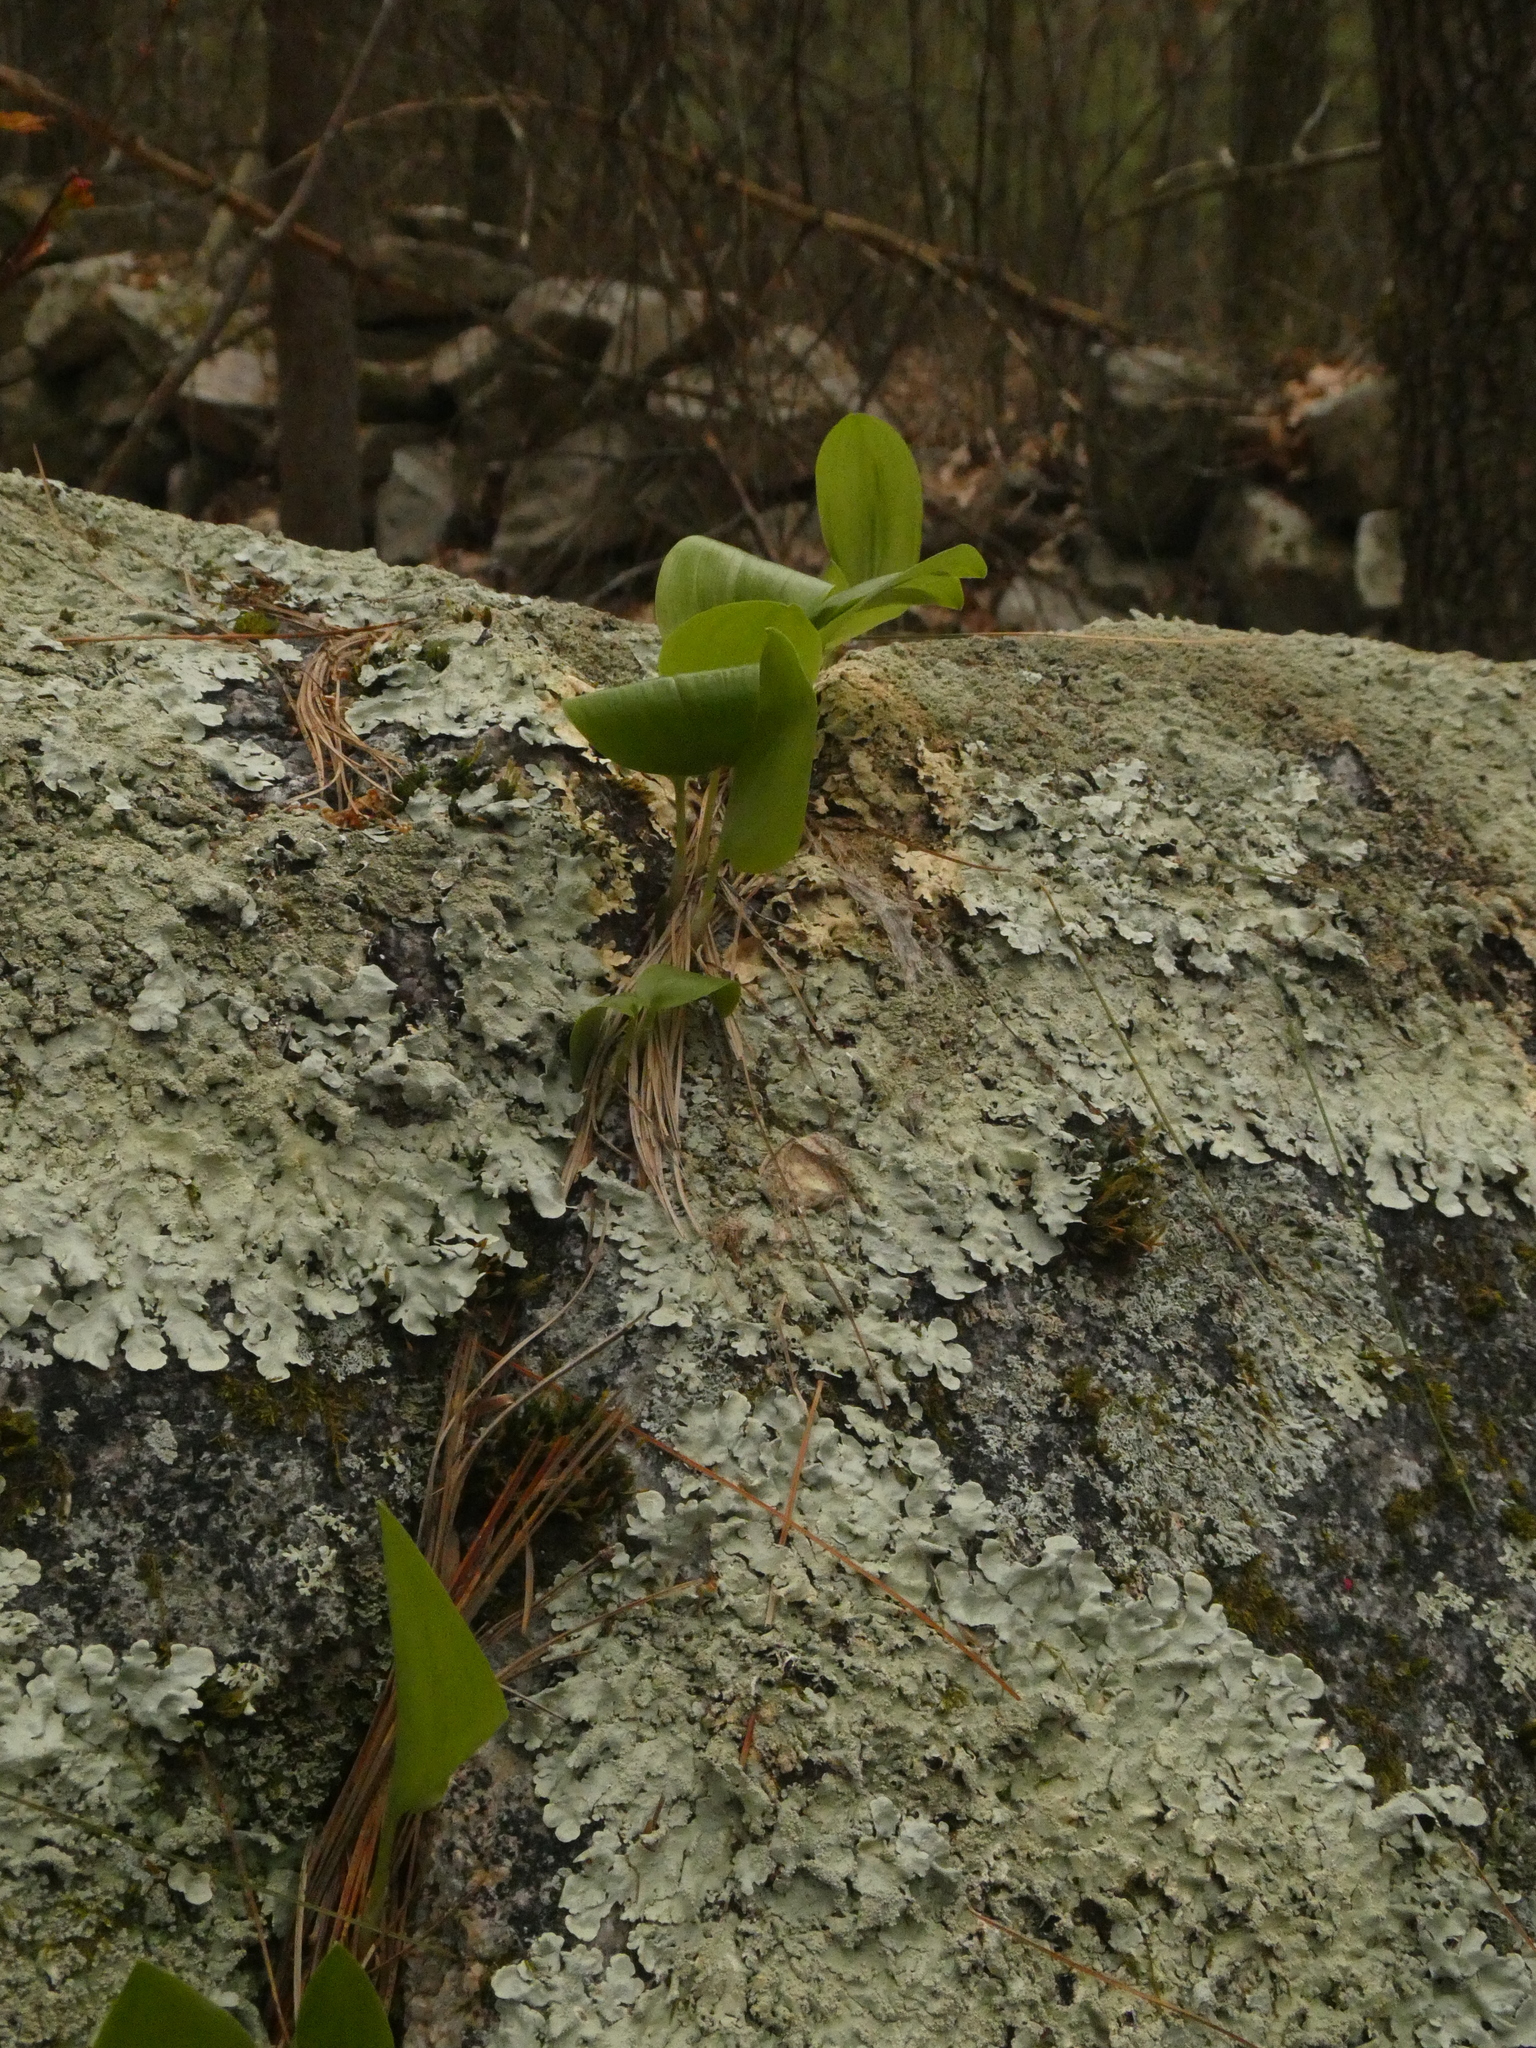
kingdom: Plantae
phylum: Tracheophyta
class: Liliopsida
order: Asparagales
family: Asparagaceae
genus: Maianthemum
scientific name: Maianthemum canadense
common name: False lily-of-the-valley
